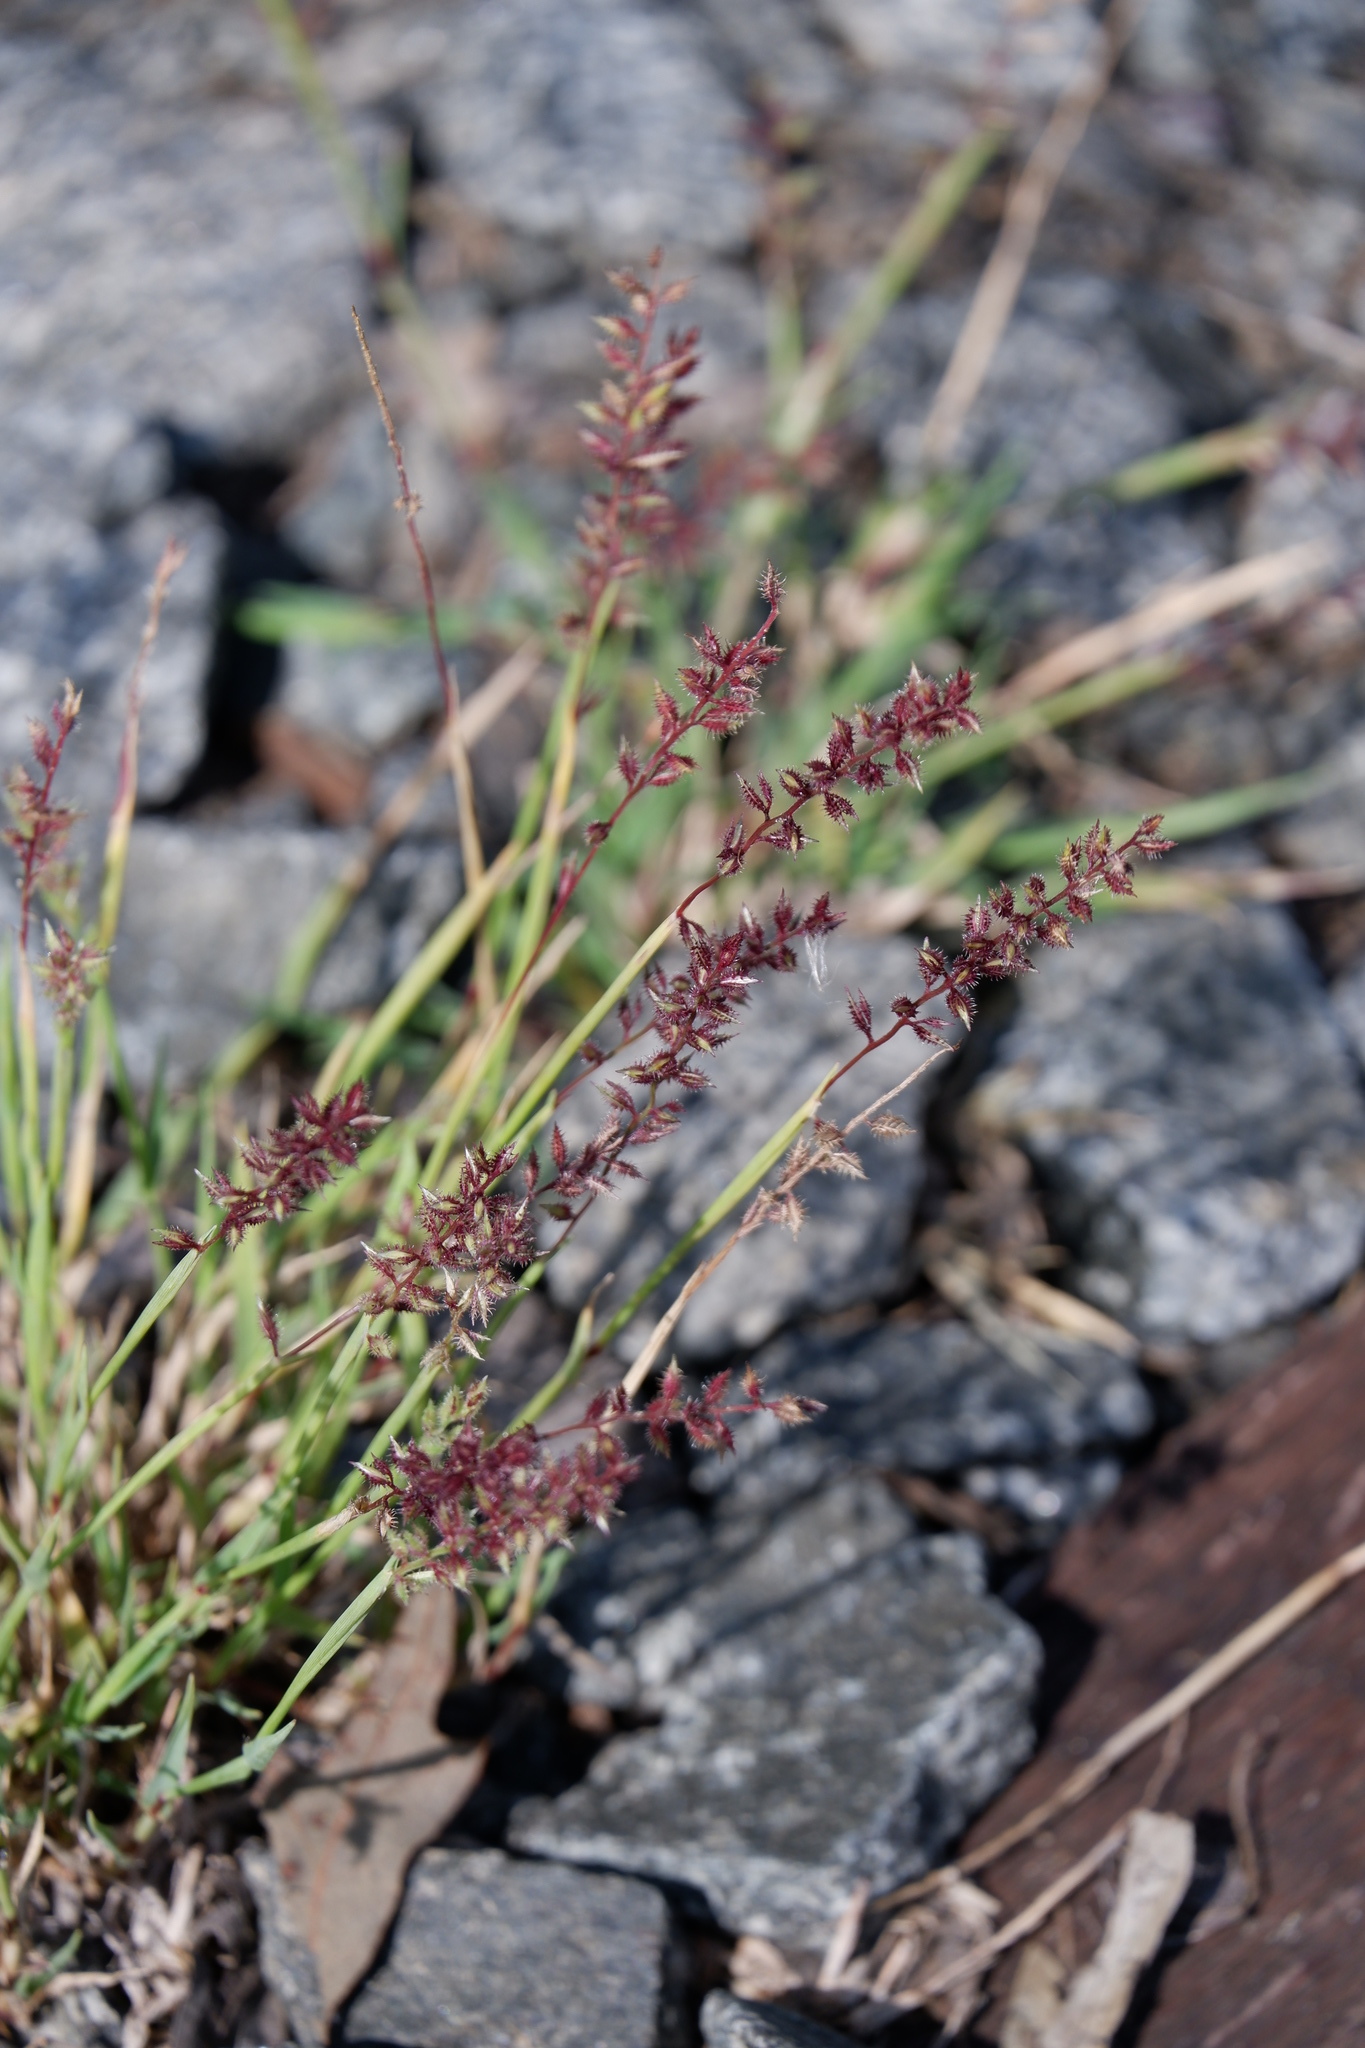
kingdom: Plantae
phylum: Tracheophyta
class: Liliopsida
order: Poales
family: Poaceae
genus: Tragus
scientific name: Tragus racemosus
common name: European bur-grass
